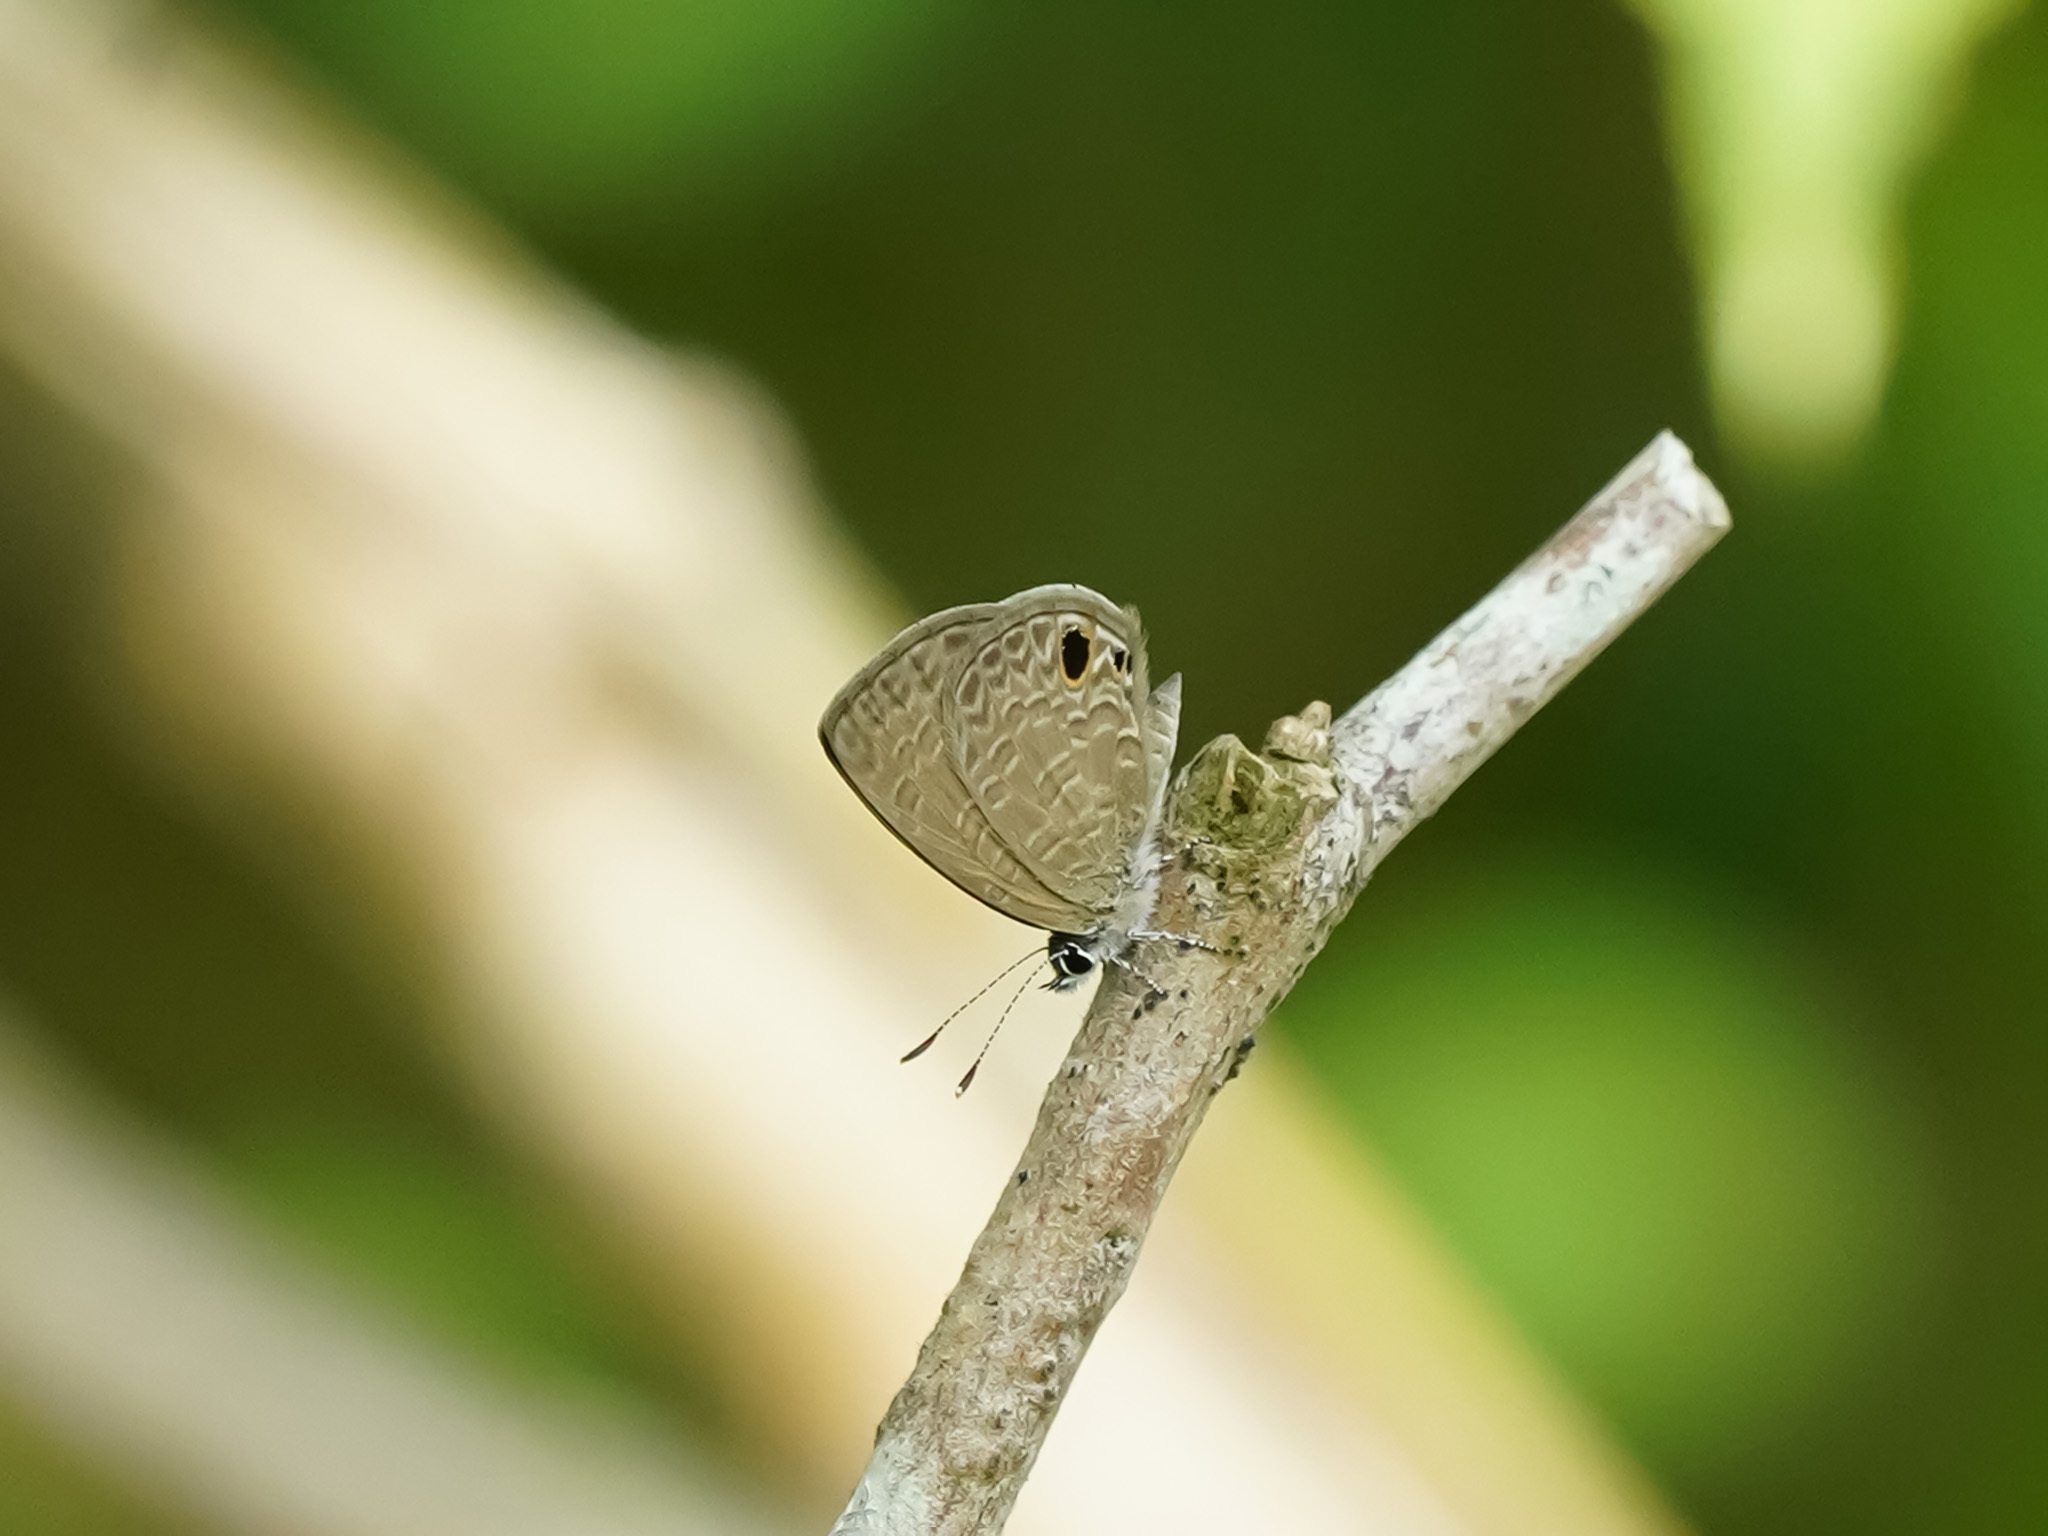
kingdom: Animalia
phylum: Arthropoda
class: Insecta
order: Lepidoptera
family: Lycaenidae
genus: Prosotas
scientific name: Prosotas dubiosa
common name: Tailless lineblue
